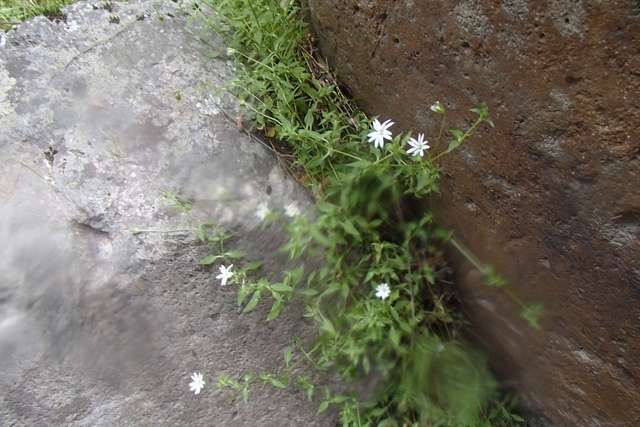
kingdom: Plantae
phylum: Tracheophyta
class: Magnoliopsida
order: Caryophyllales
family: Caryophyllaceae
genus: Stellaria
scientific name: Stellaria flaccida
